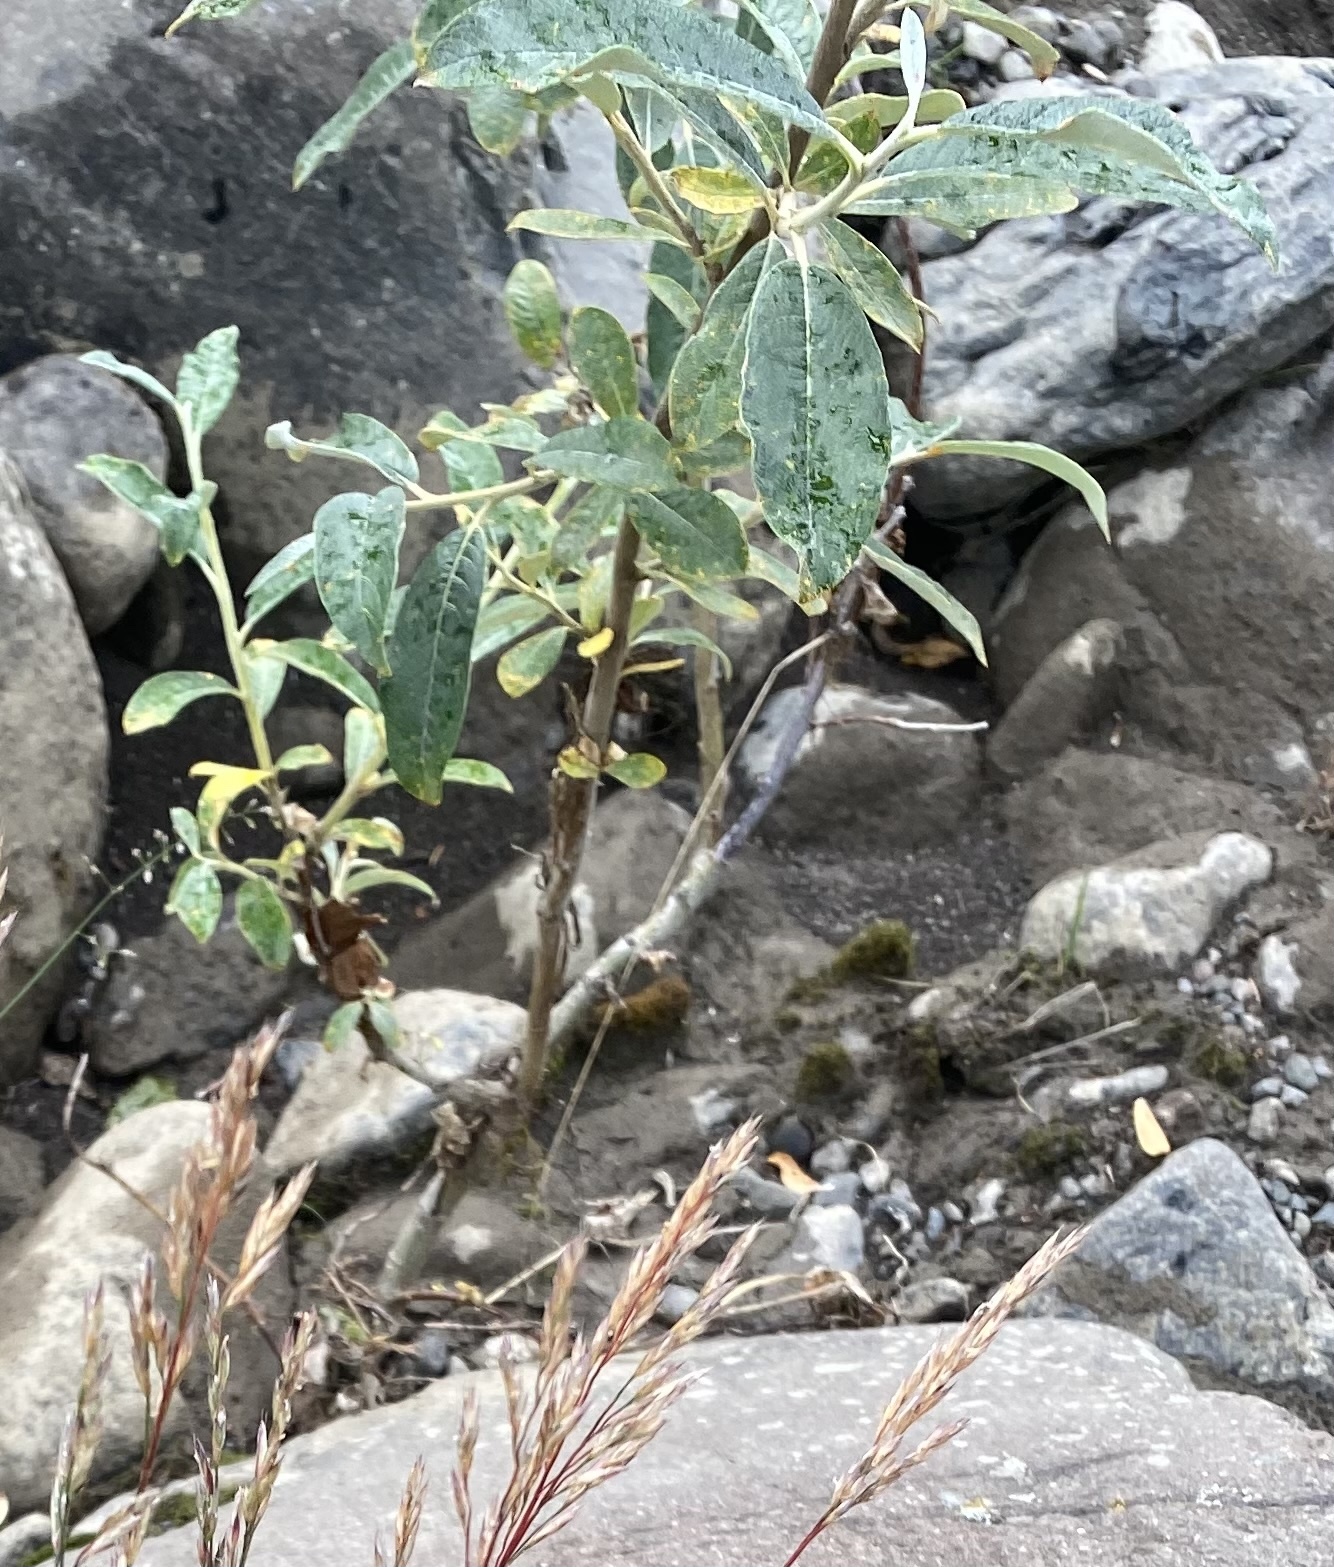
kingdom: Plantae
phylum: Tracheophyta
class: Magnoliopsida
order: Malpighiales
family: Salicaceae
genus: Salix
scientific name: Salix alaxensis
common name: Feltleaf willow
